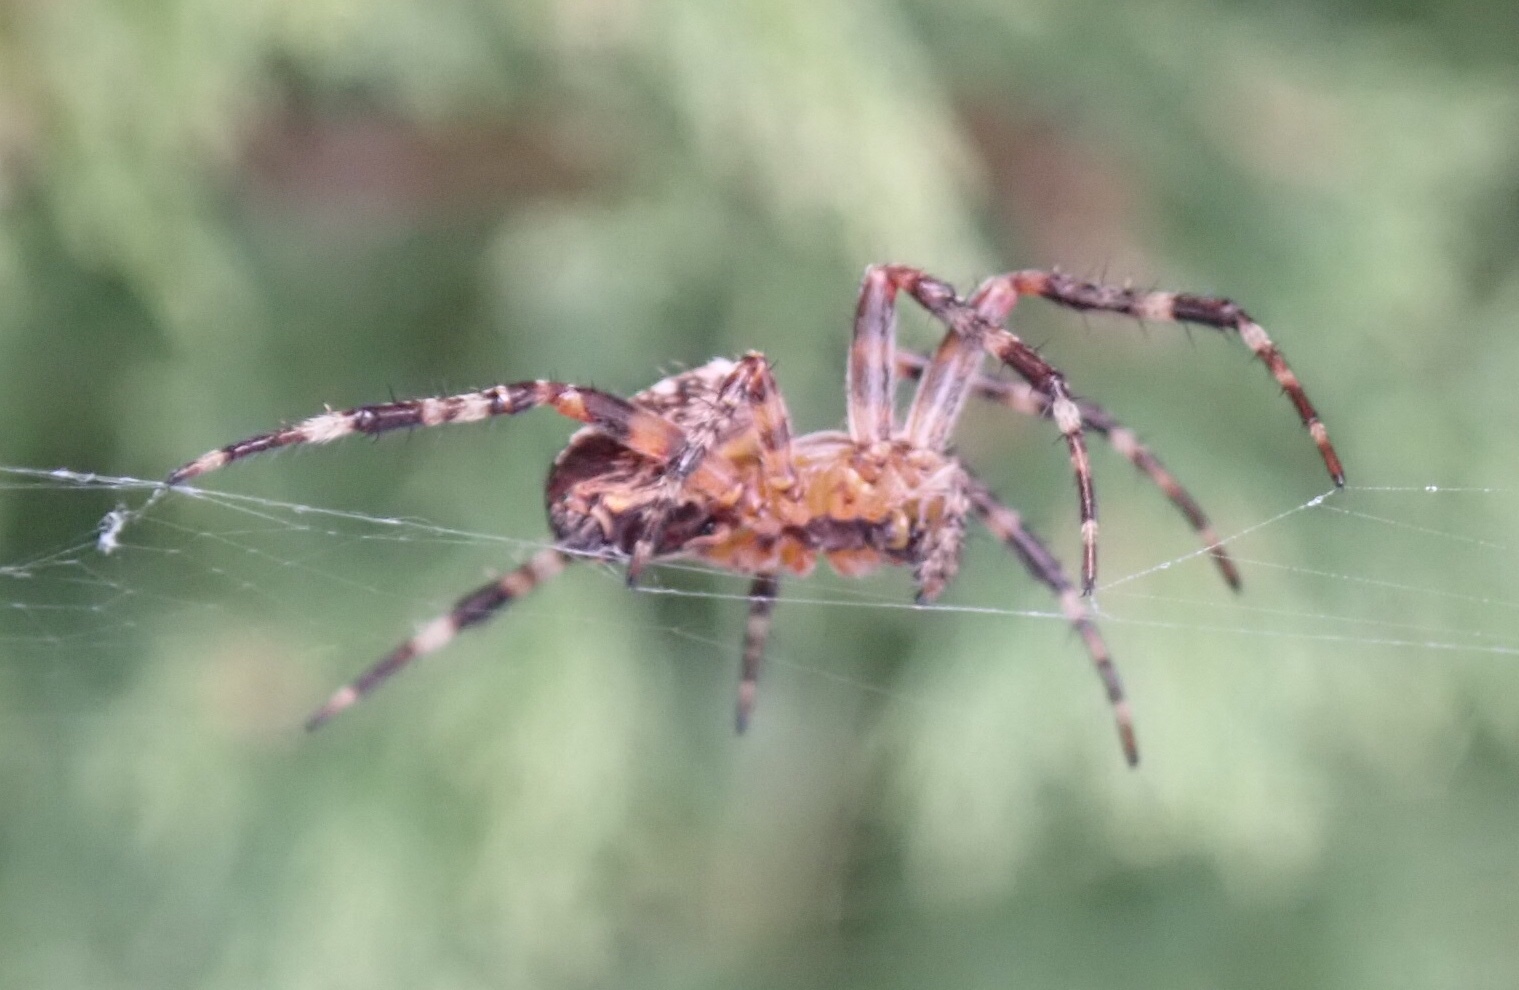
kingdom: Animalia
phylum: Arthropoda
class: Arachnida
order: Araneae
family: Araneidae
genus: Araneus
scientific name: Araneus diadematus
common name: Cross orbweaver
